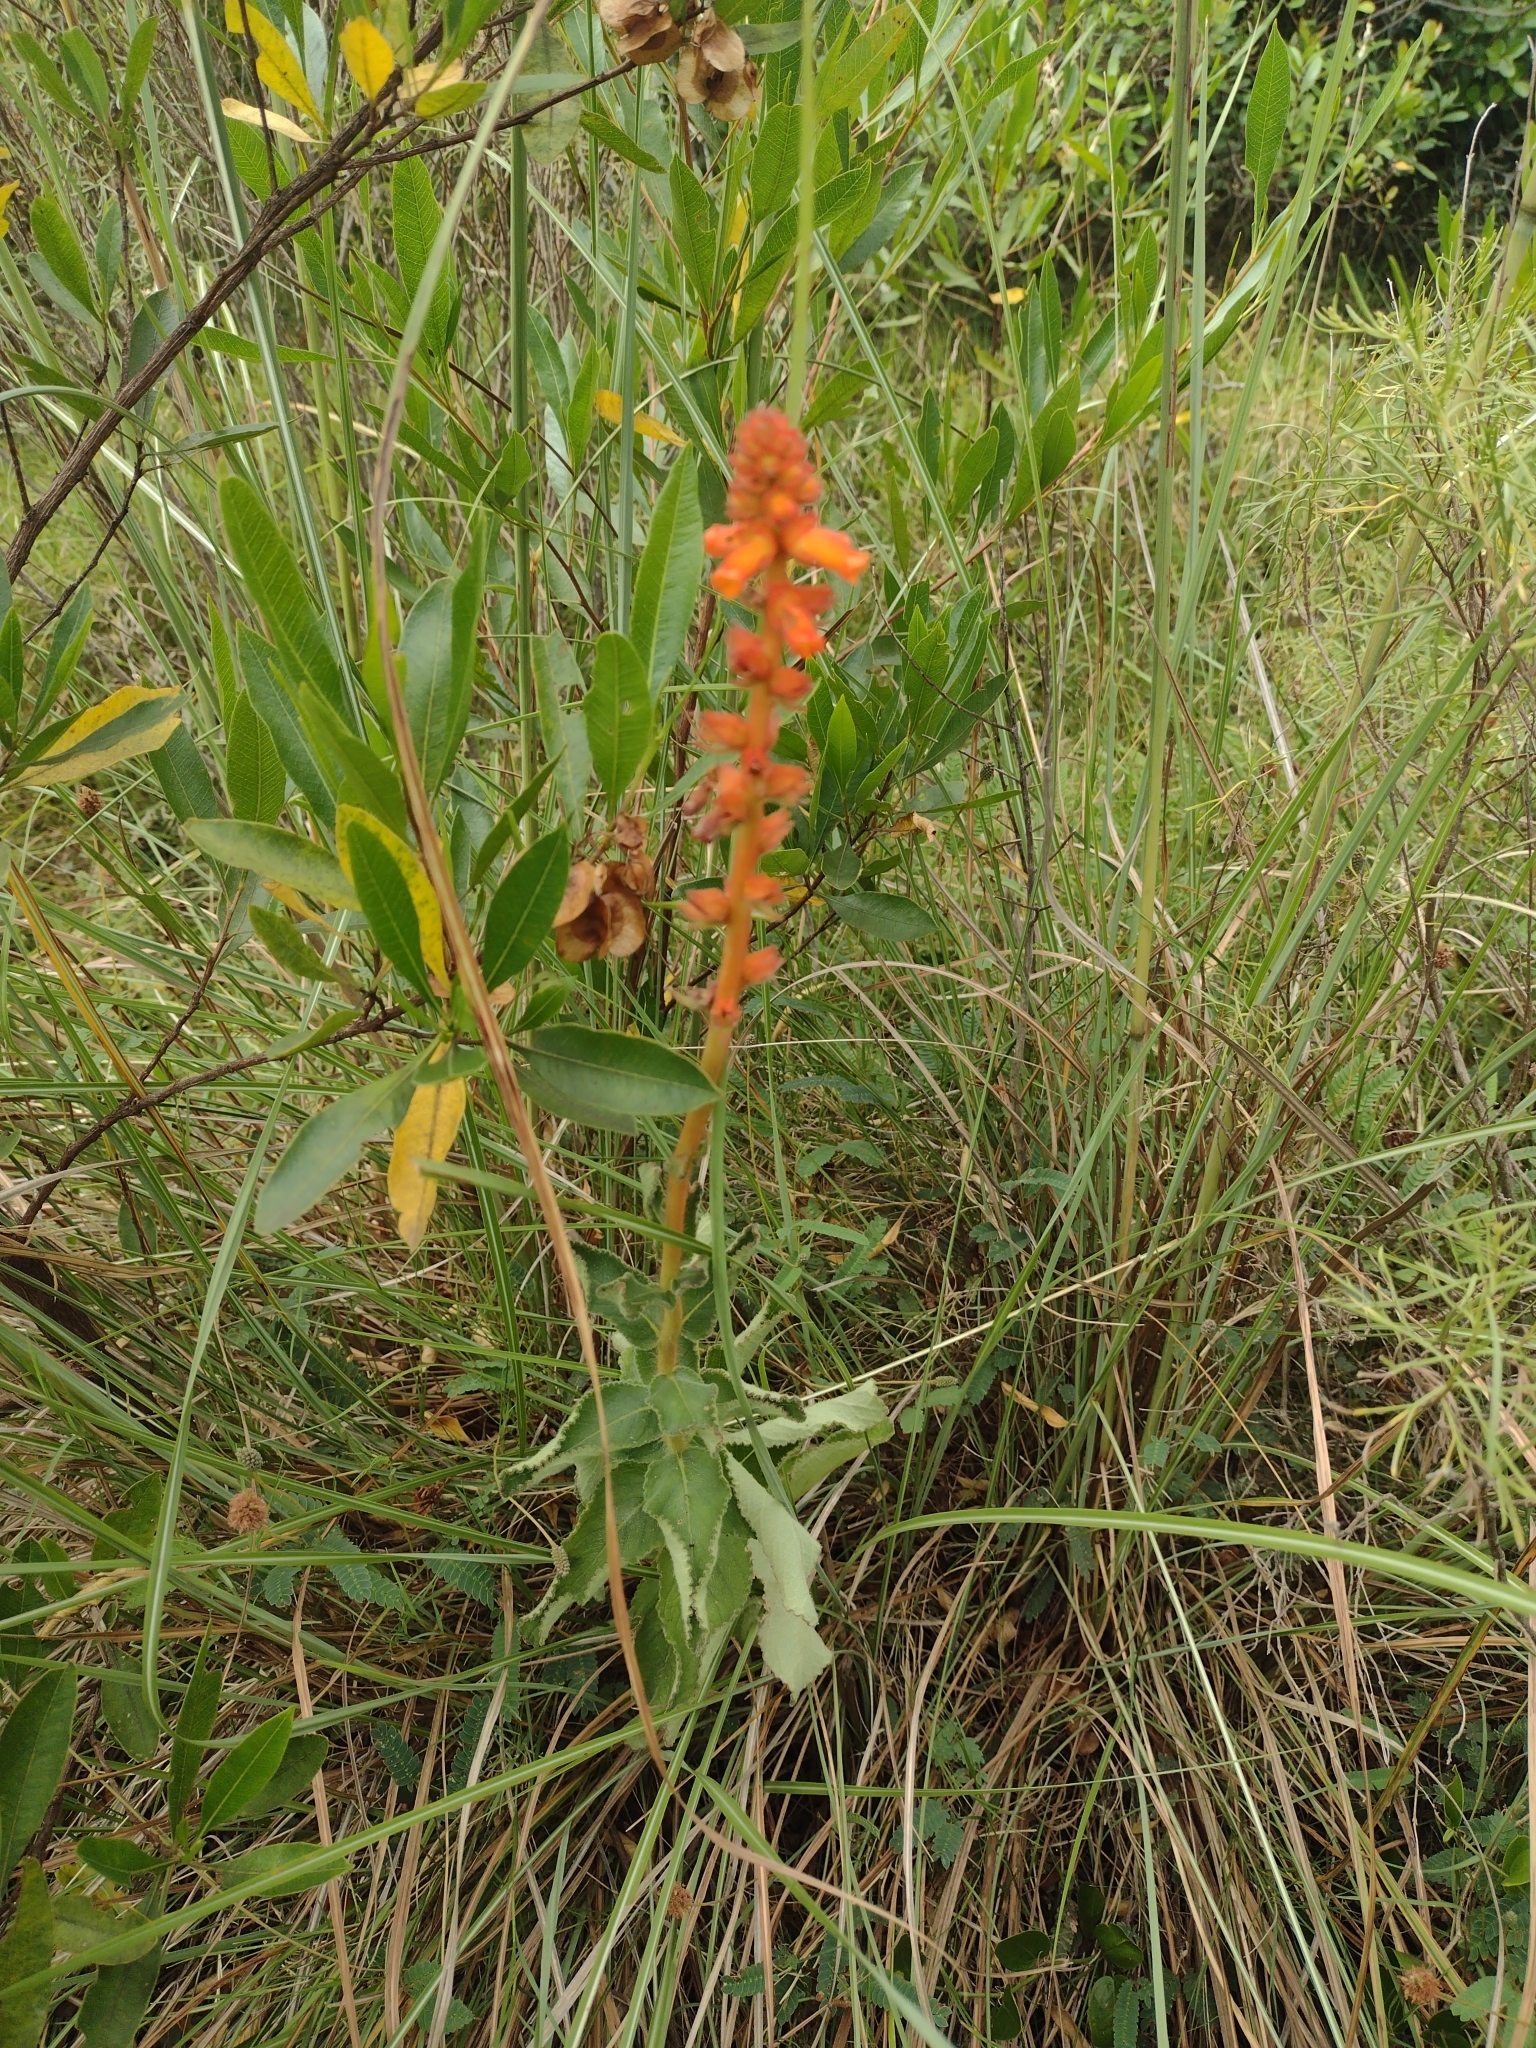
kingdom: Plantae
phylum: Tracheophyta
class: Magnoliopsida
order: Lamiales
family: Gesneriaceae
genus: Sinningia
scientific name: Sinningia allagophylla
